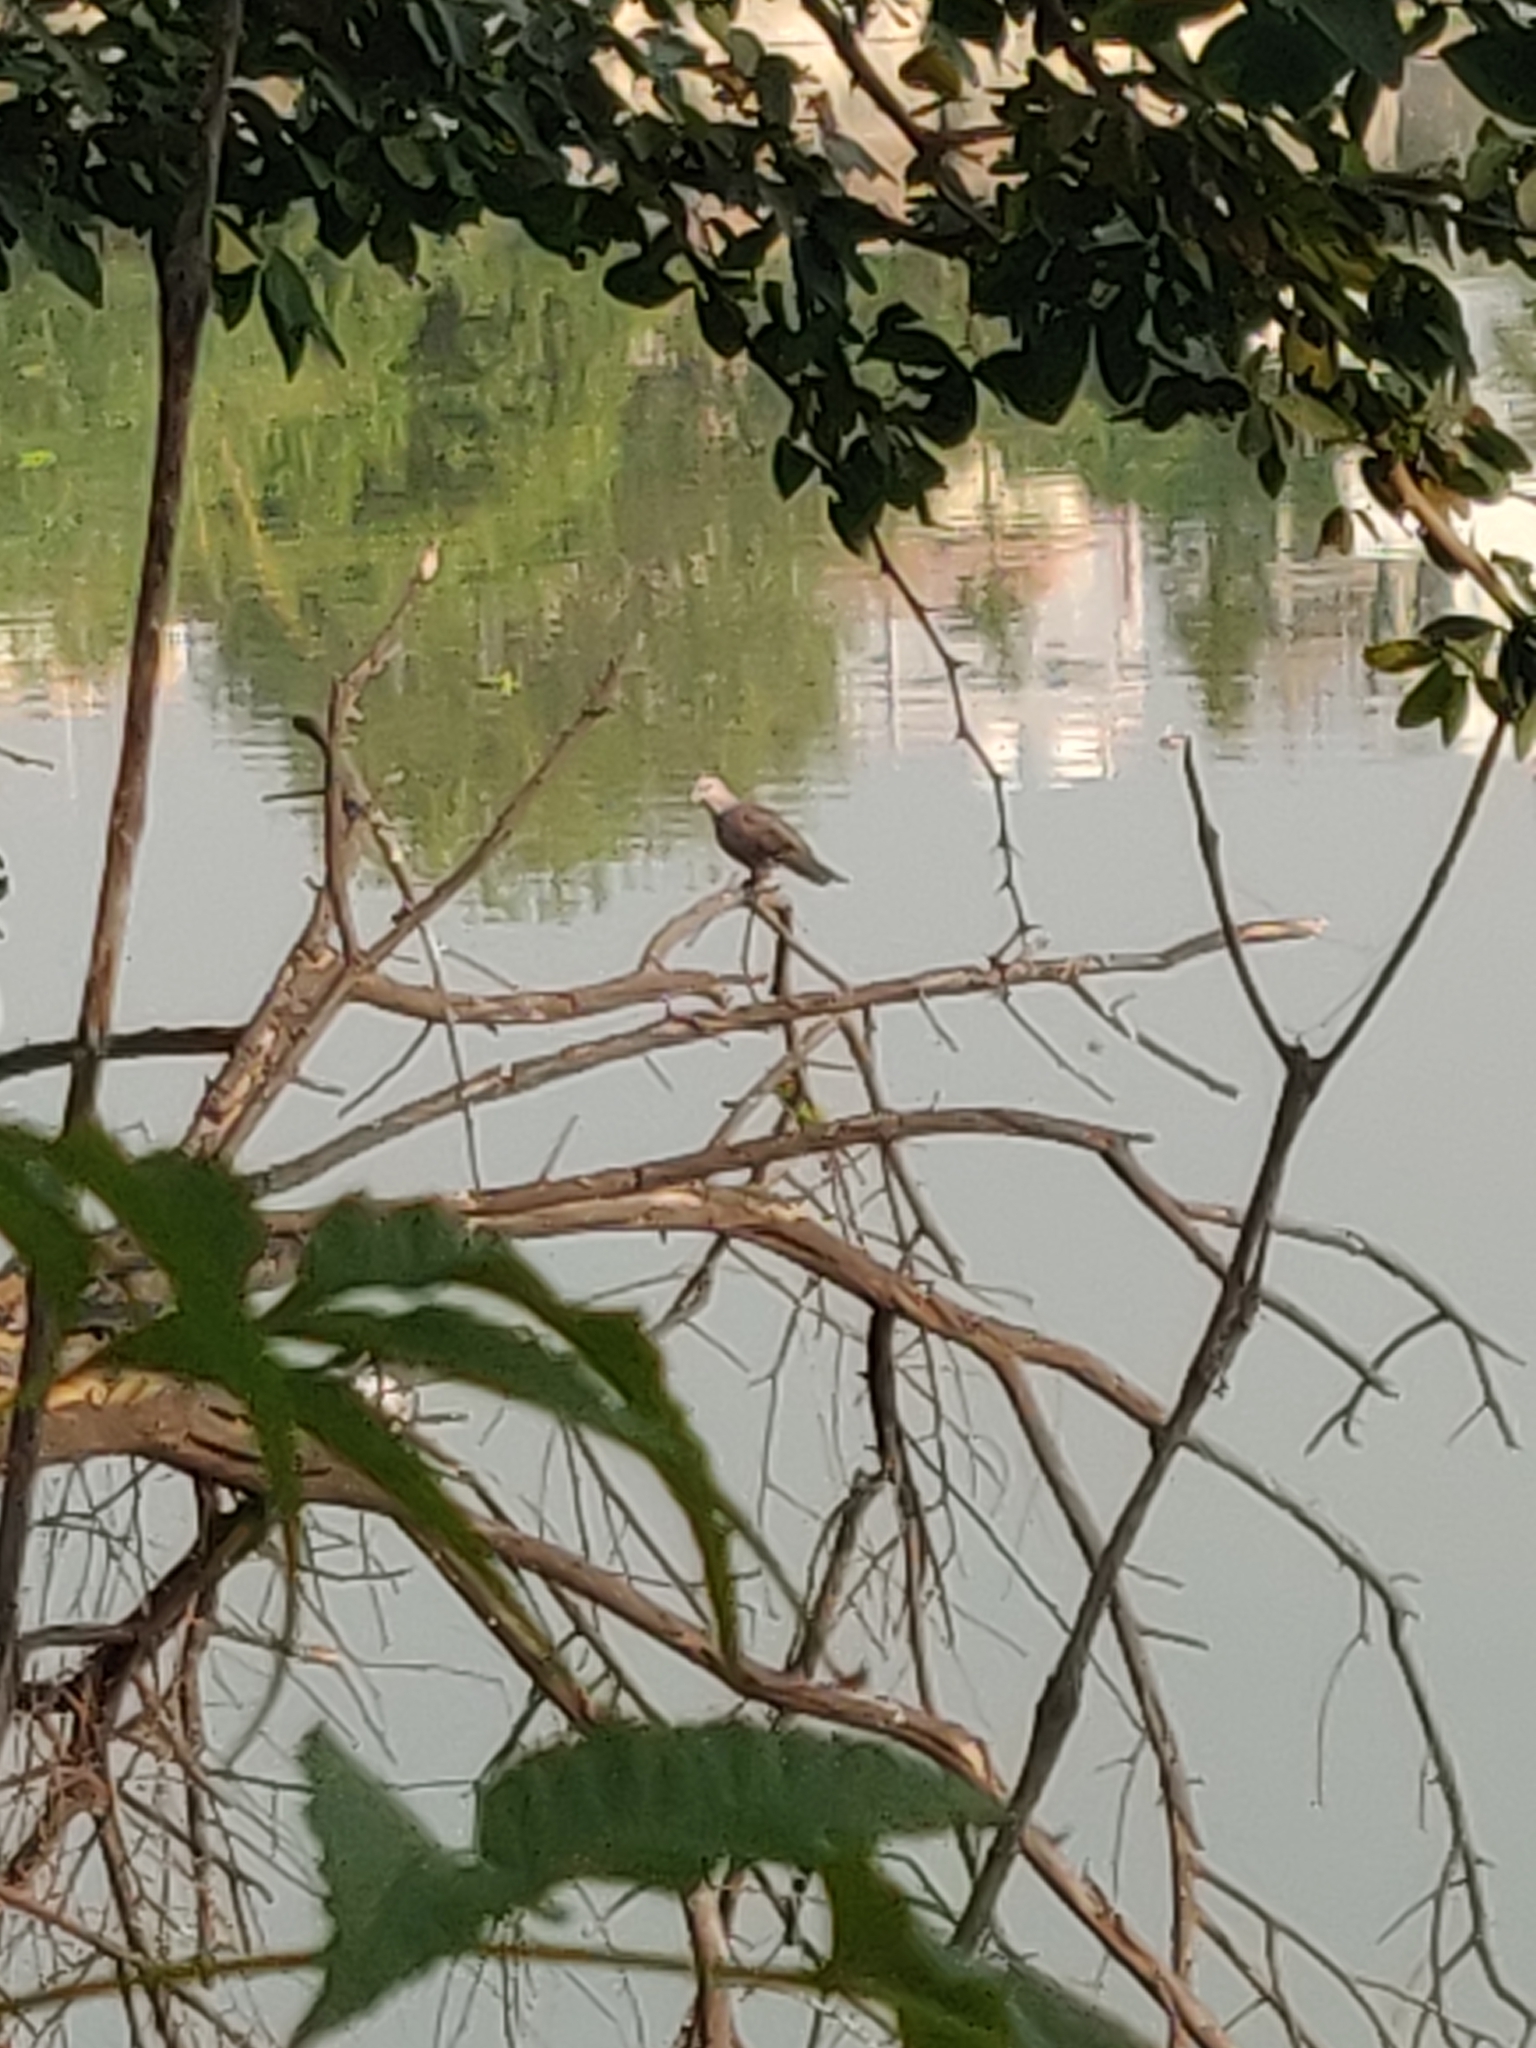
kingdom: Animalia
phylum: Chordata
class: Aves
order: Columbiformes
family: Columbidae
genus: Spilopelia
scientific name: Spilopelia chinensis
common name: Spotted dove
